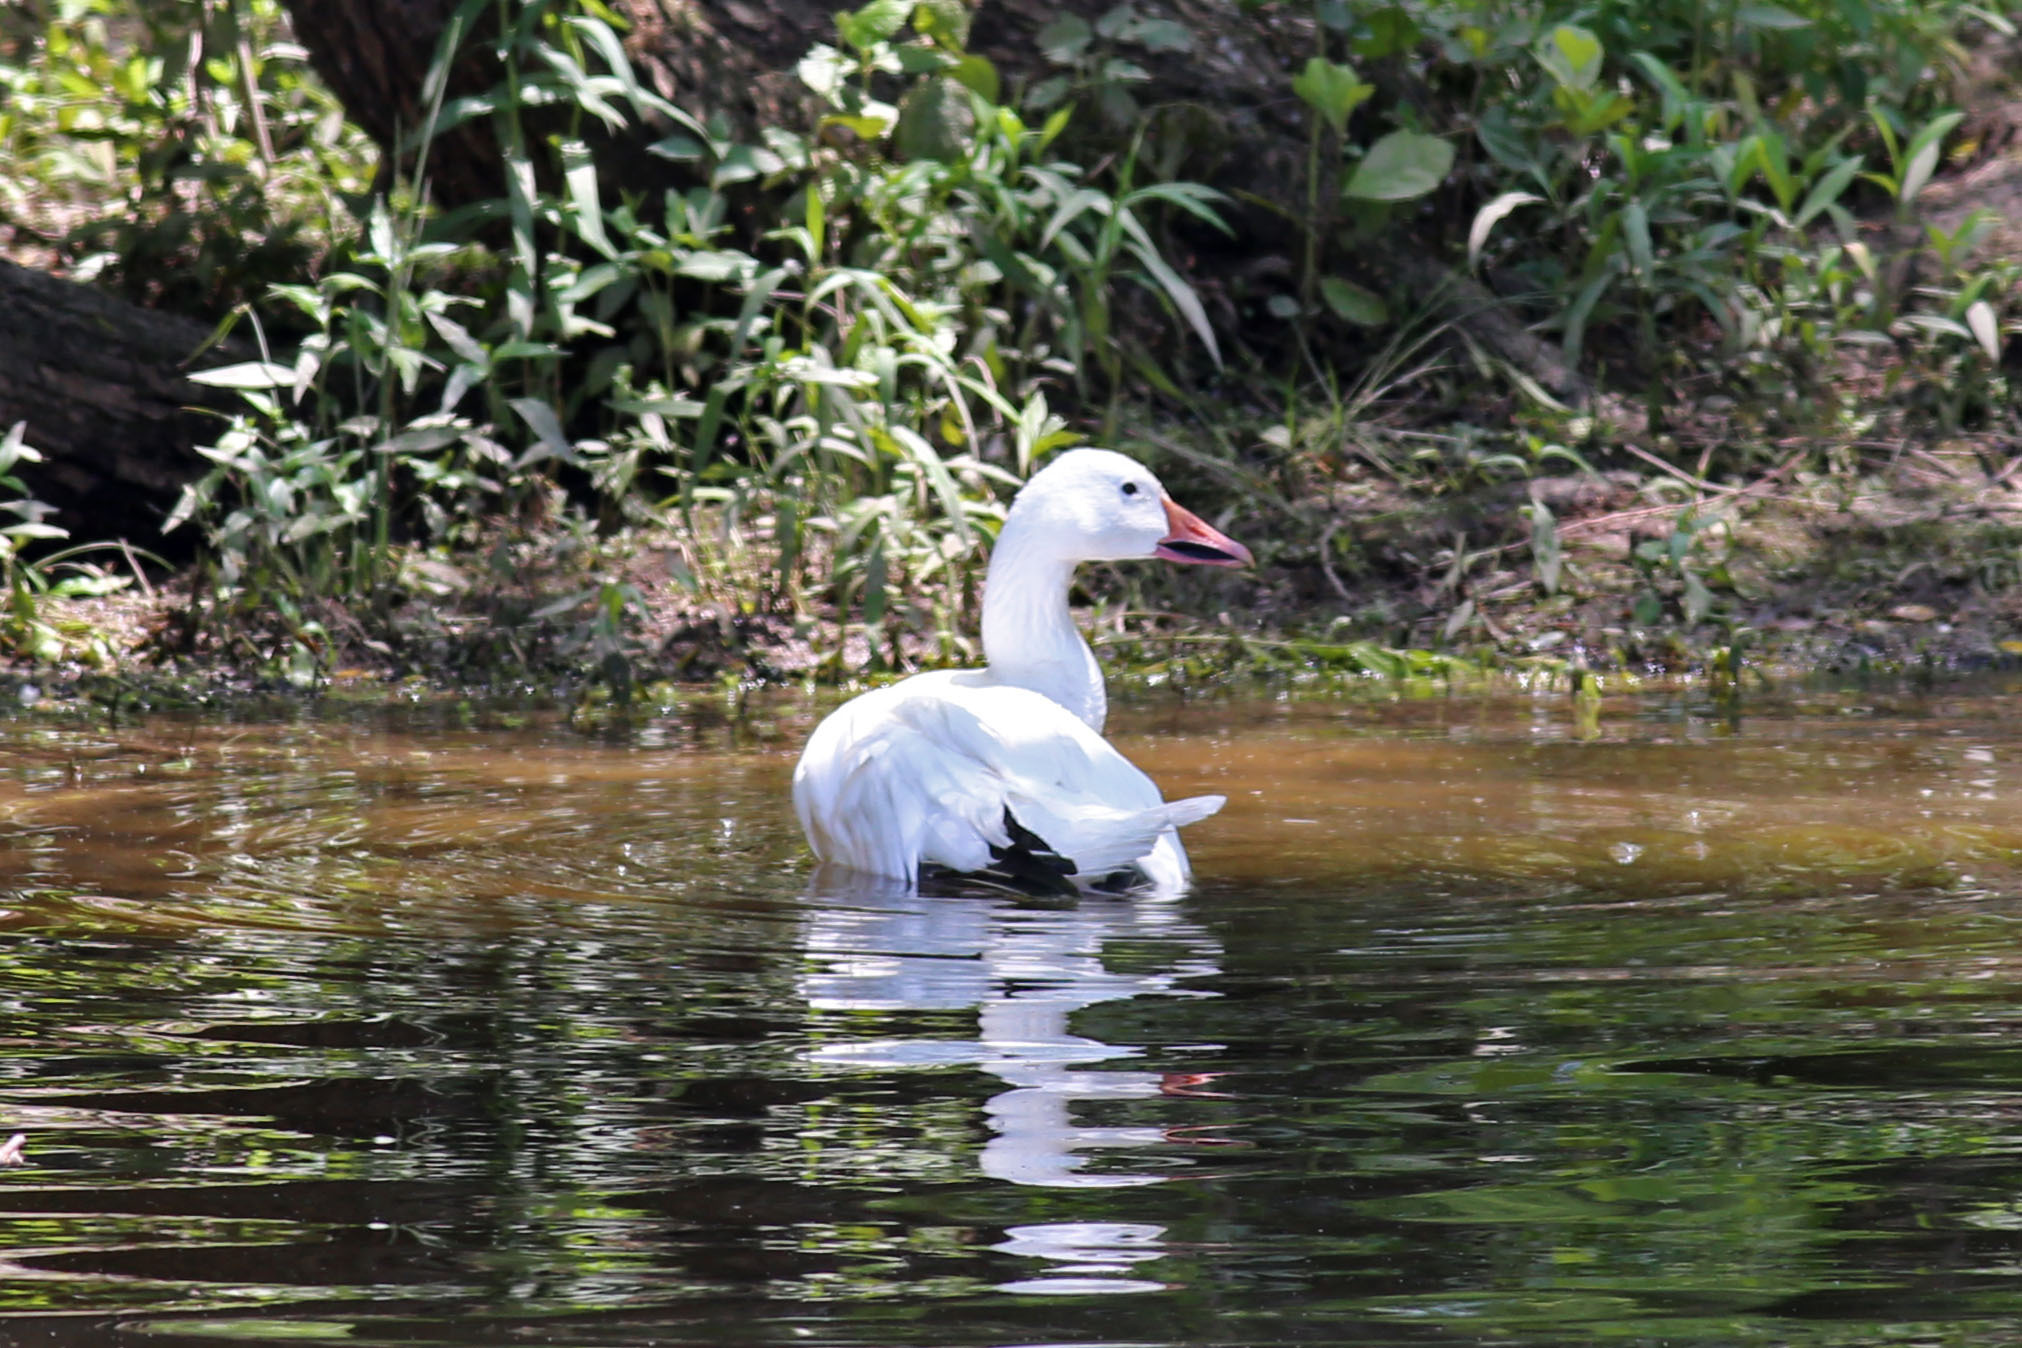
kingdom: Animalia
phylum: Chordata
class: Aves
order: Anseriformes
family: Anatidae
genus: Anser
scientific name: Anser caerulescens
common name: Snow goose
